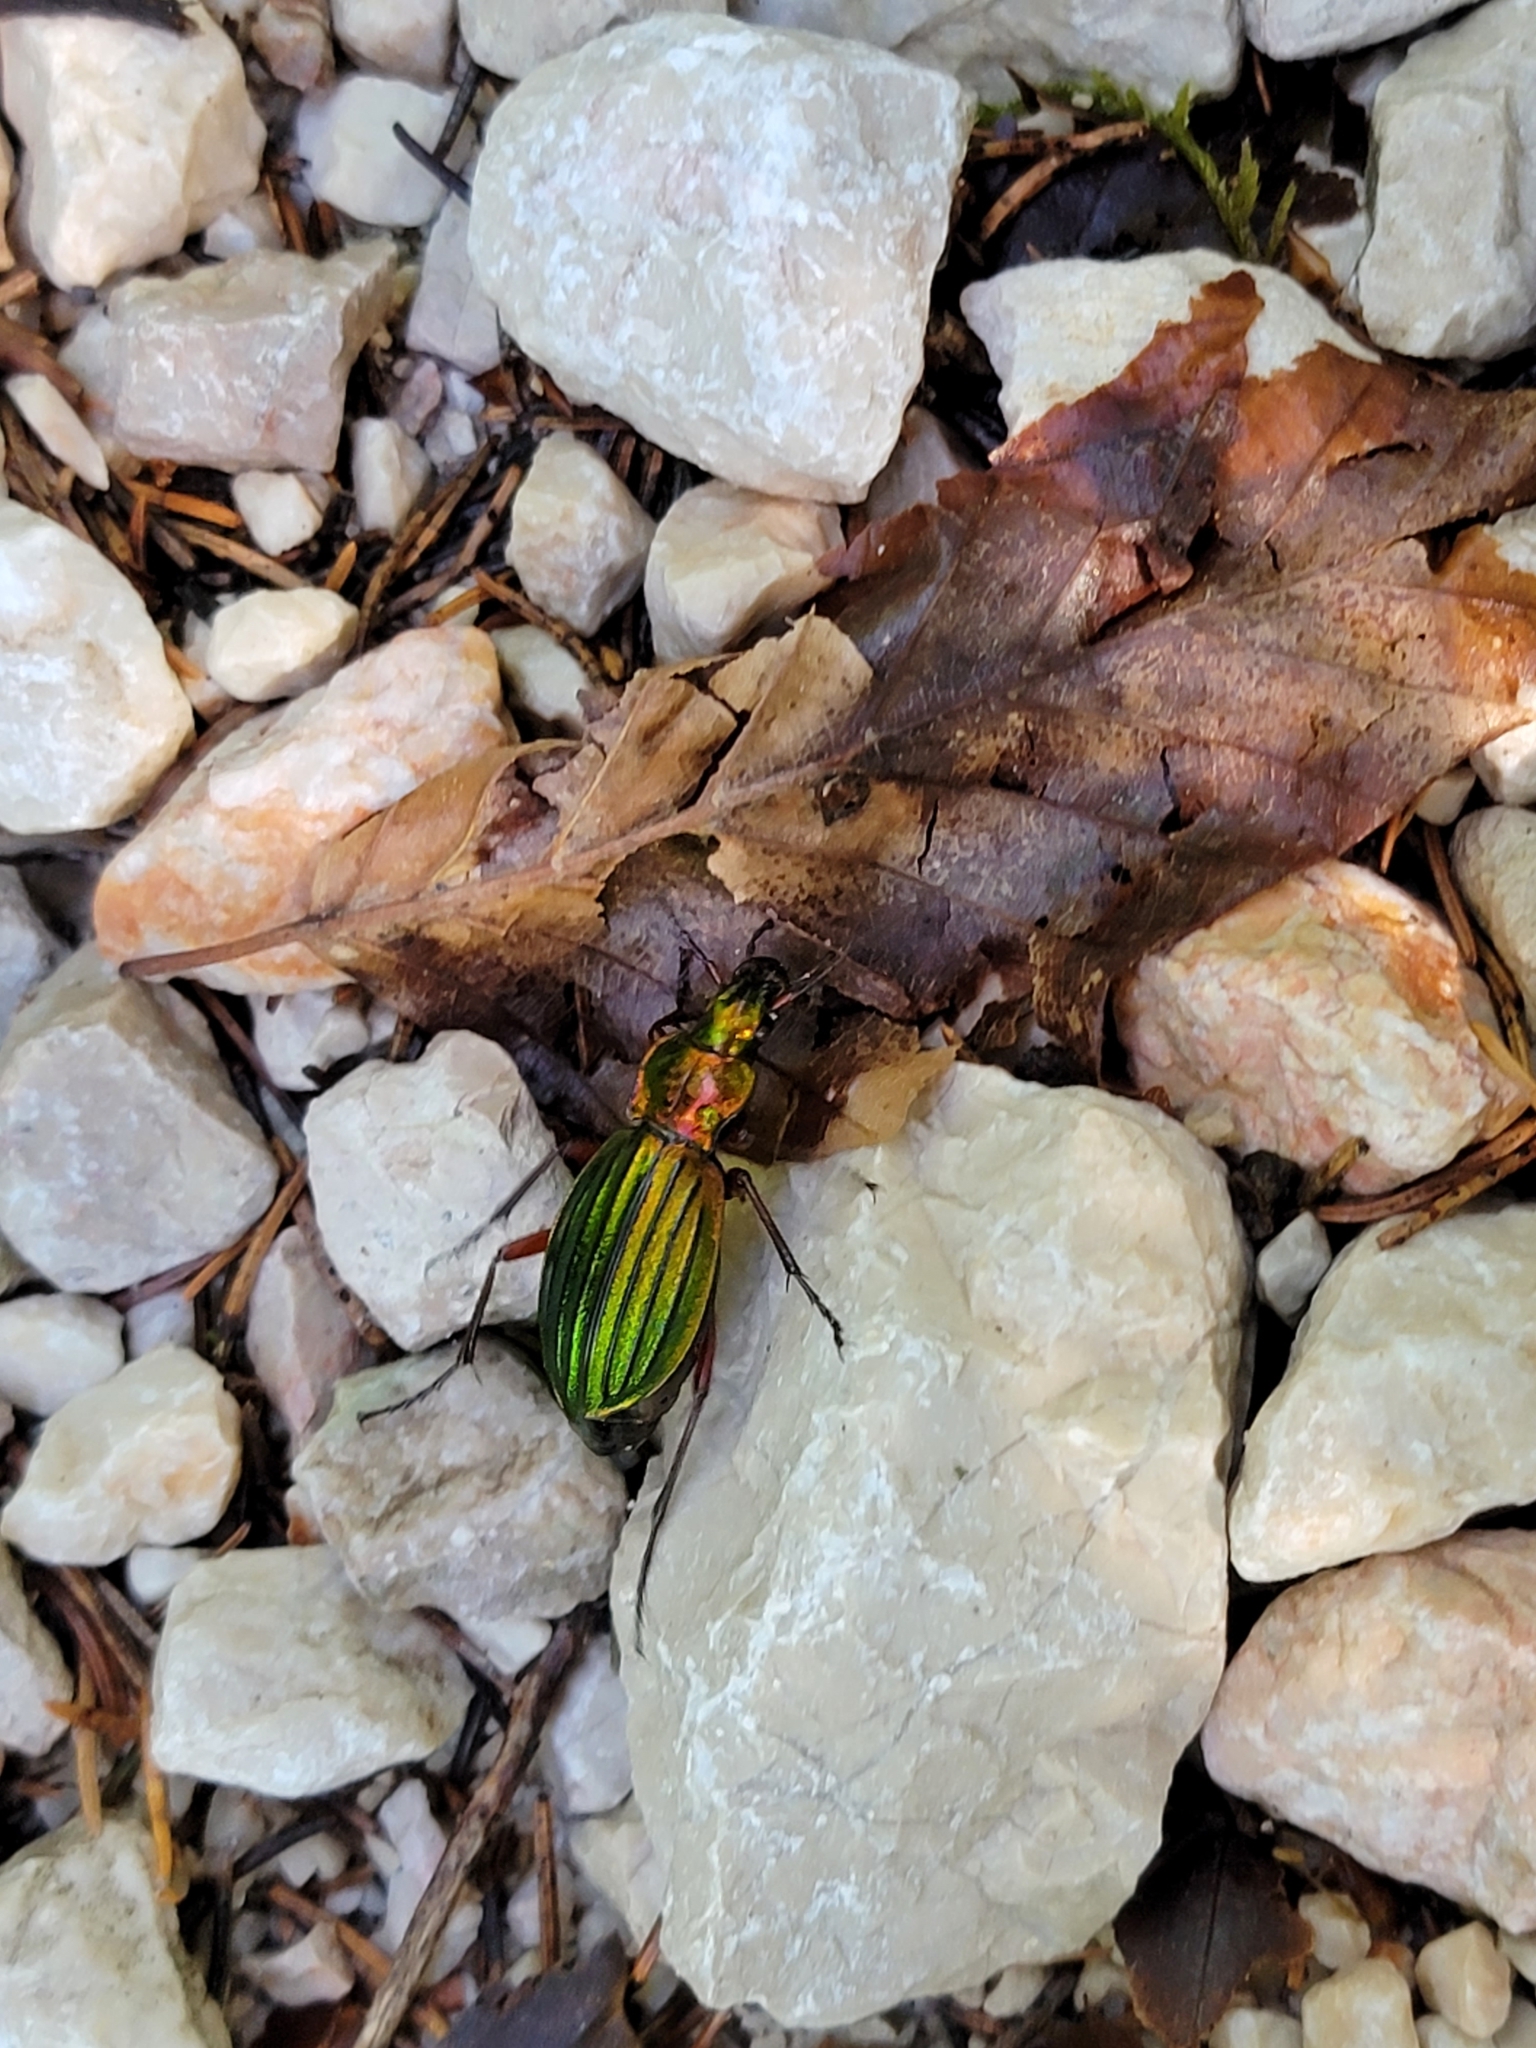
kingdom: Animalia
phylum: Arthropoda
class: Insecta
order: Coleoptera
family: Carabidae
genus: Carabus
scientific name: Carabus auronitens
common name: Carabus auronitens
